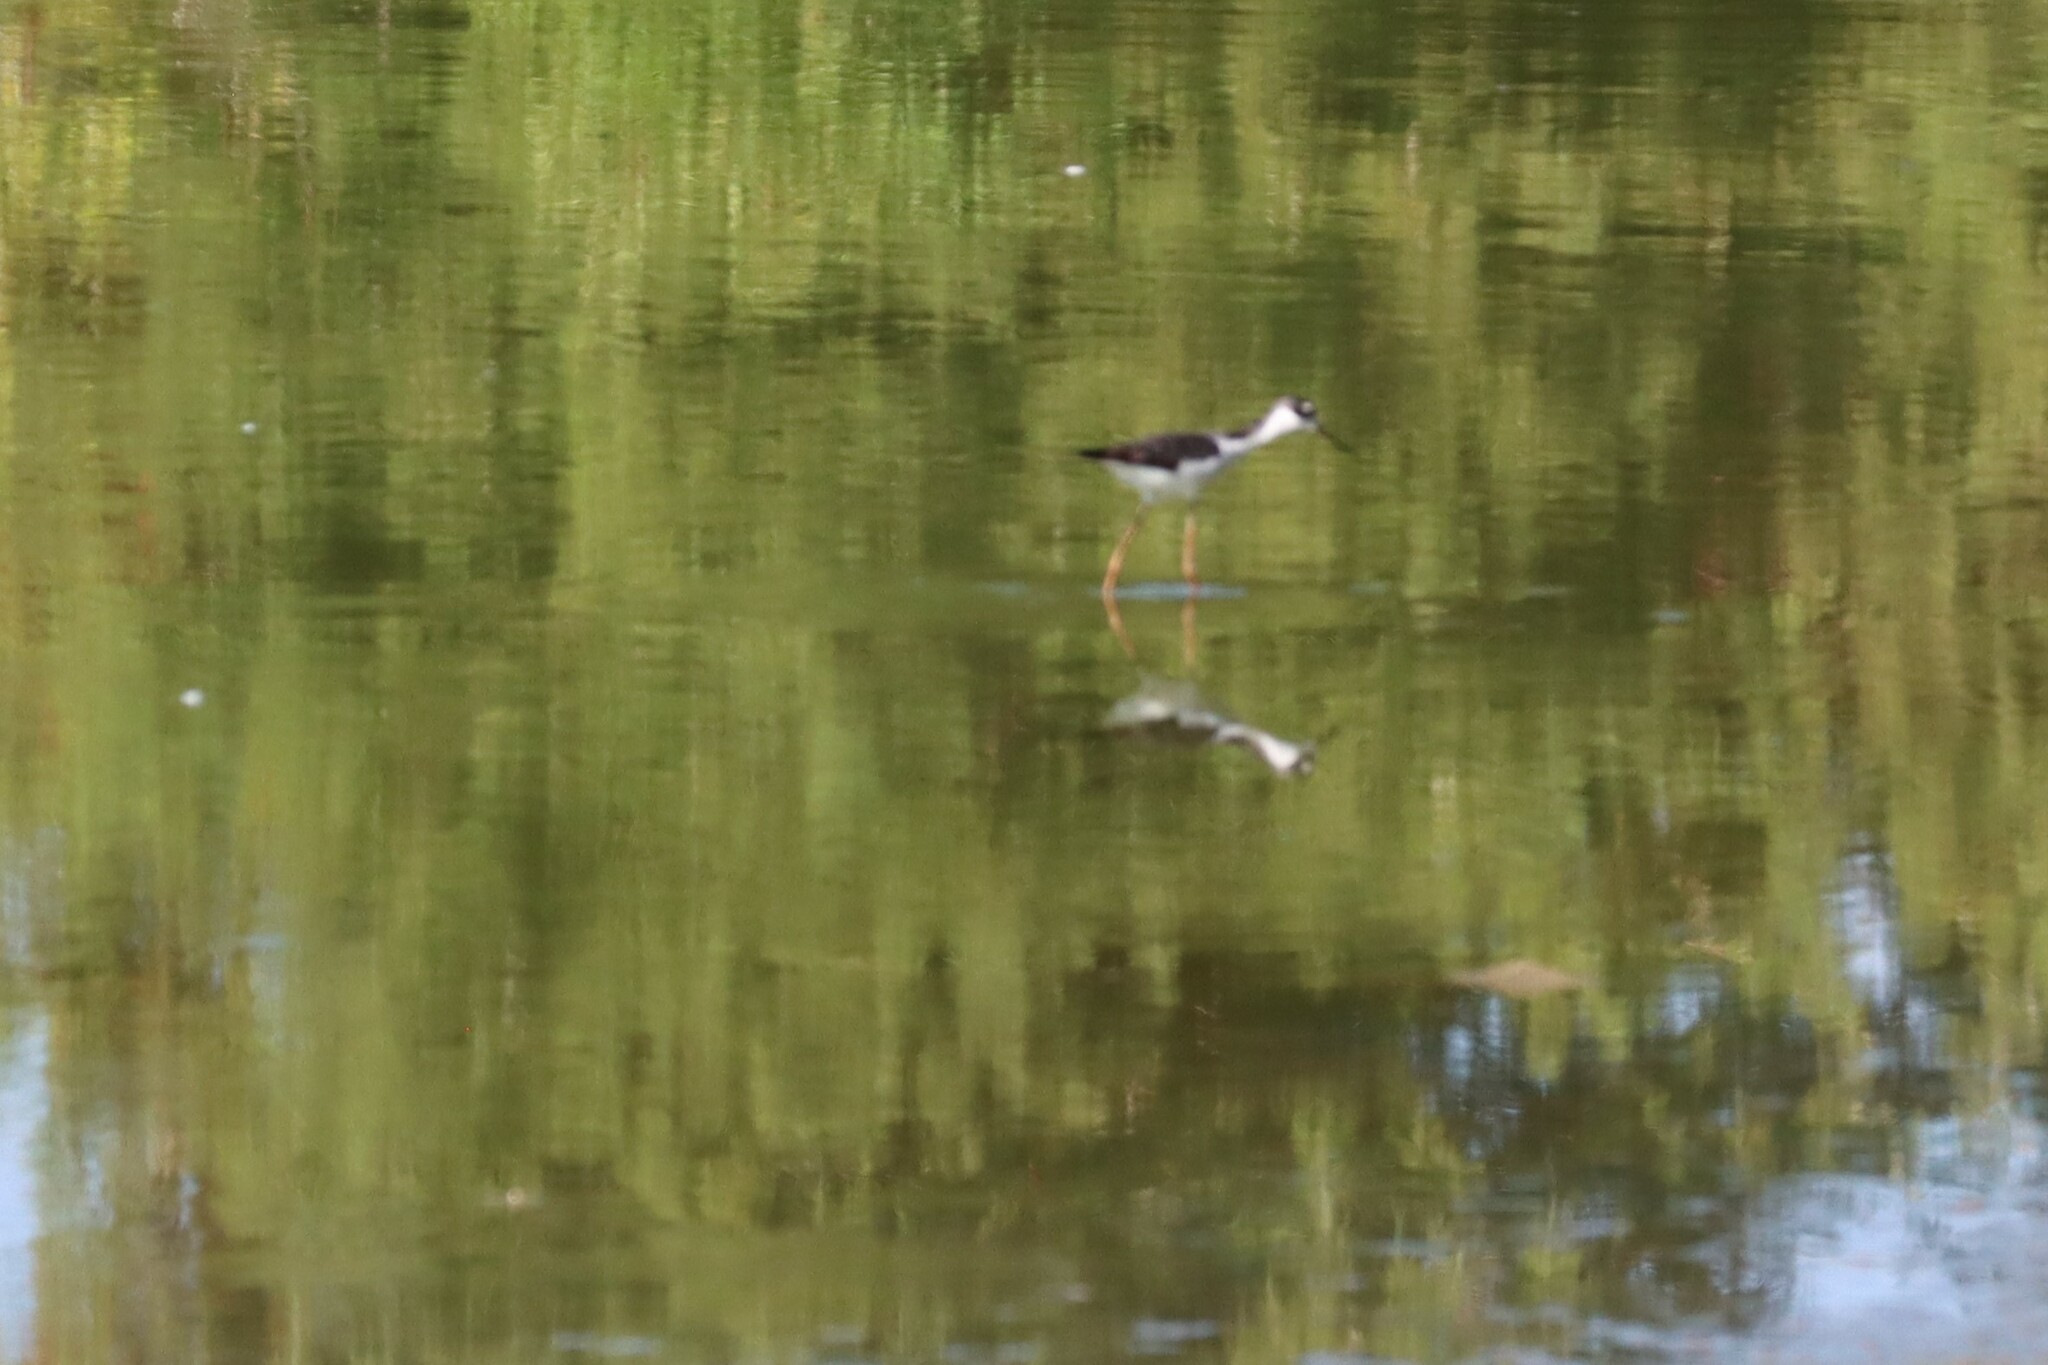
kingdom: Animalia
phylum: Chordata
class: Aves
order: Charadriiformes
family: Recurvirostridae
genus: Himantopus
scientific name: Himantopus mexicanus
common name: Black-necked stilt
